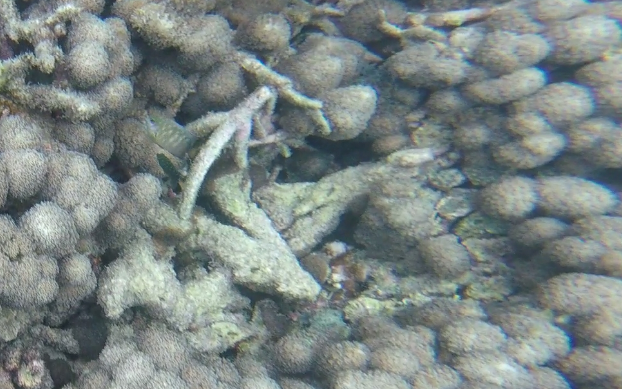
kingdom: Animalia
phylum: Chordata
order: Perciformes
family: Pomacentridae
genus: Plectroglyphidodon
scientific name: Plectroglyphidodon lacrymatus
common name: Jewel damsel
